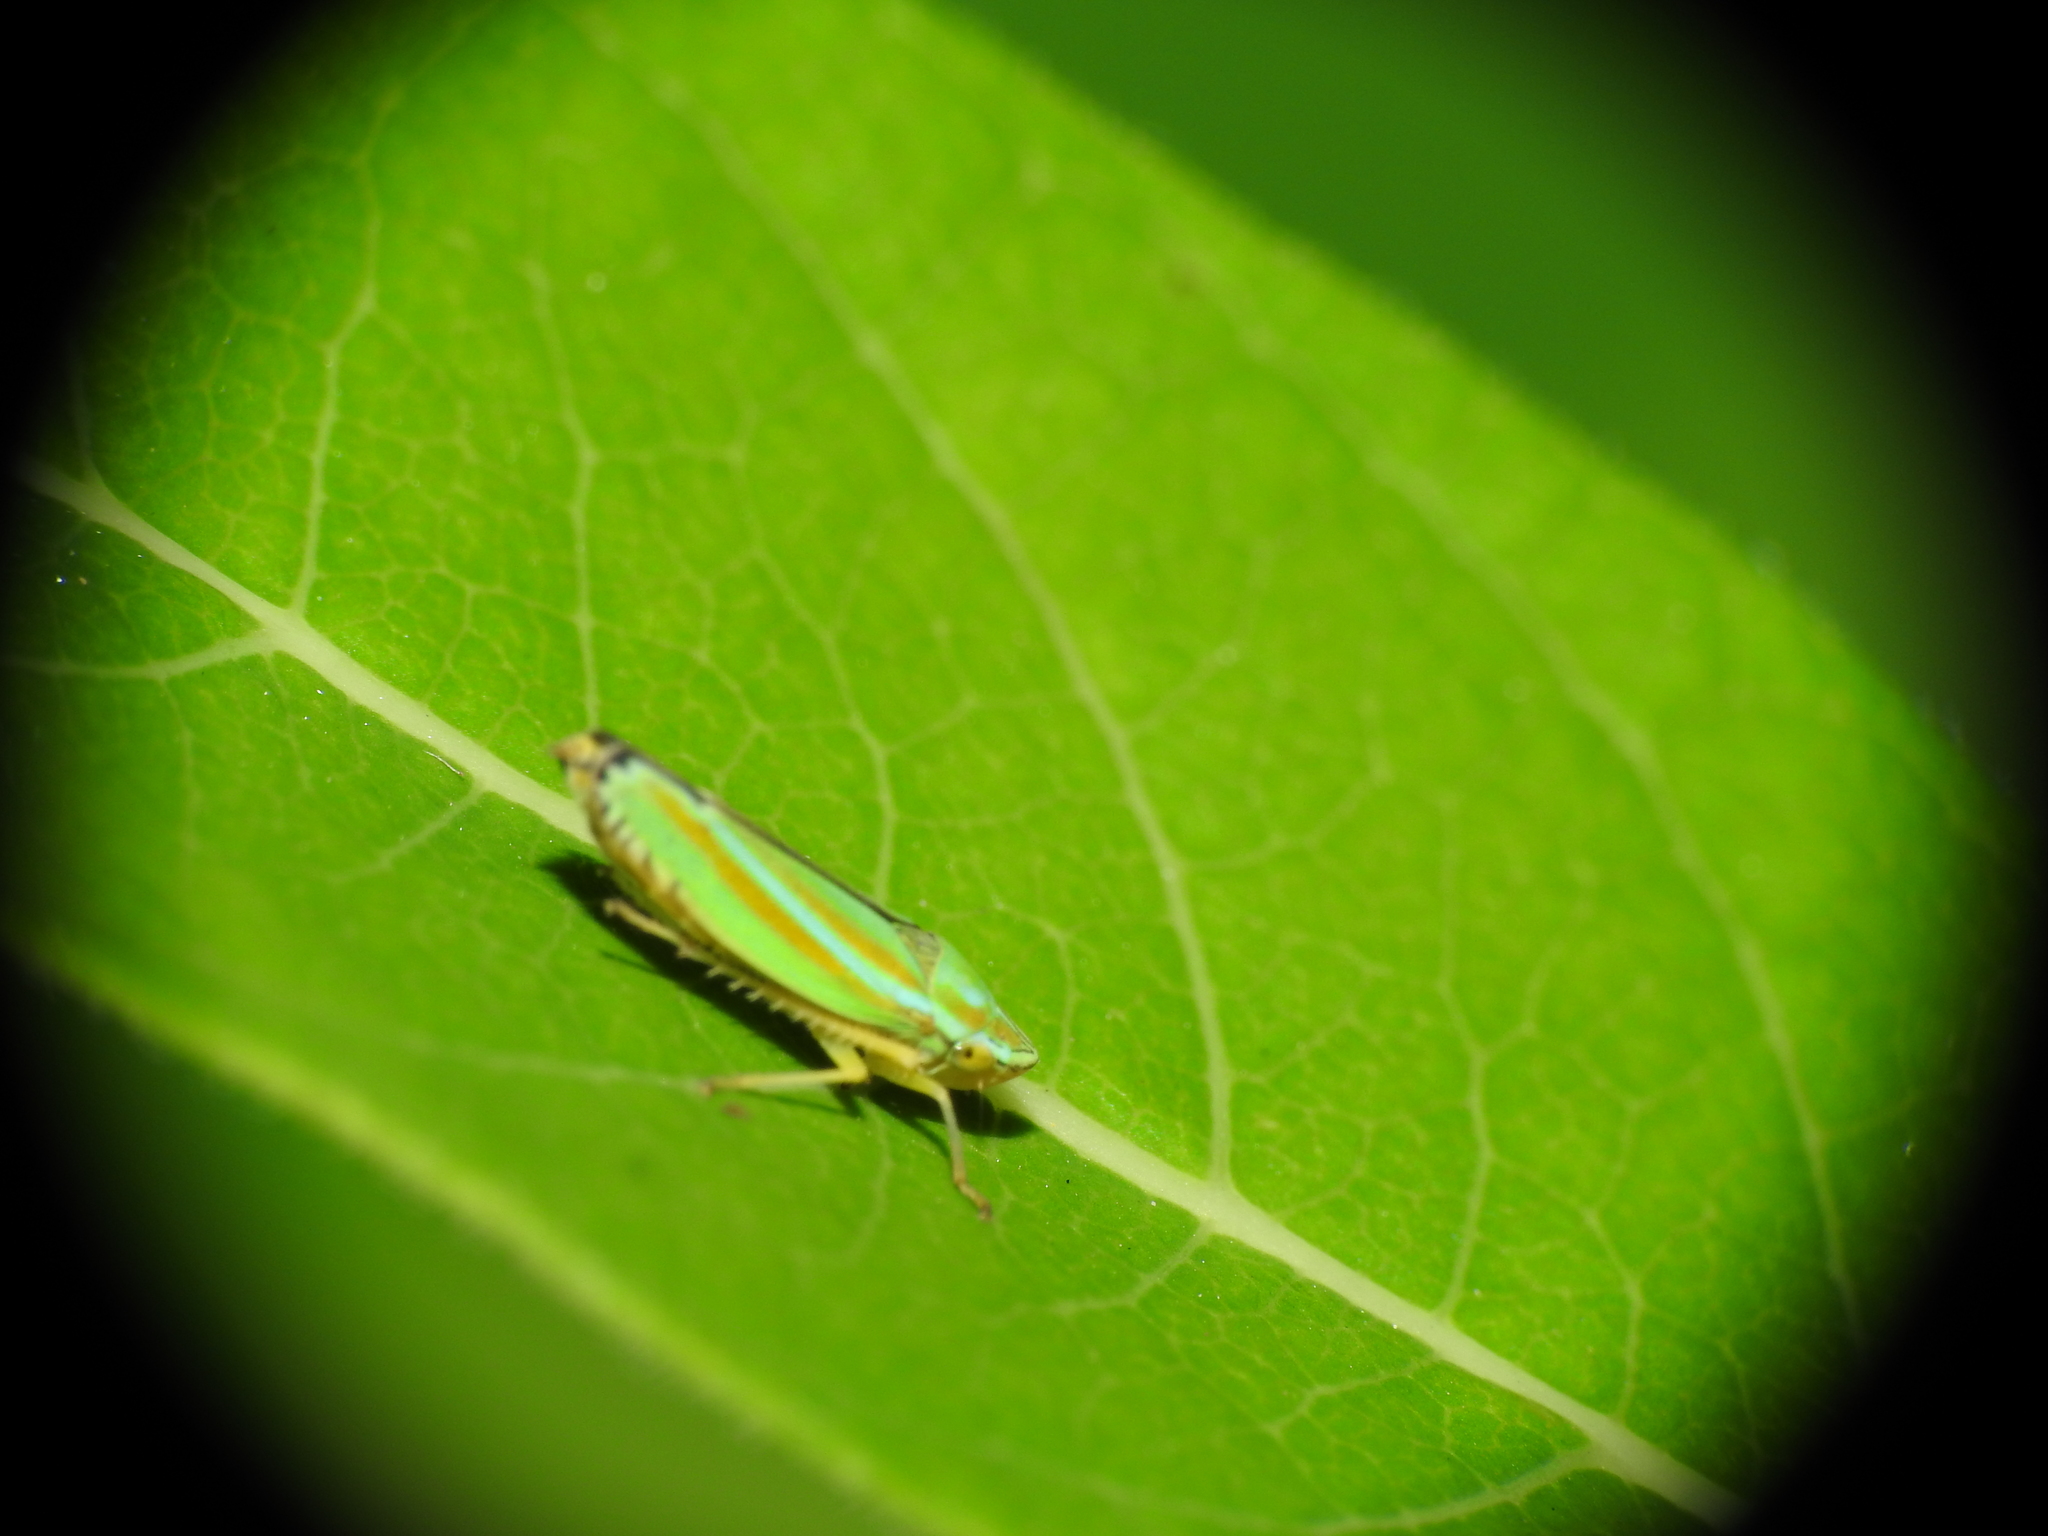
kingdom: Animalia
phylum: Arthropoda
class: Insecta
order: Hemiptera
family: Cicadellidae
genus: Graphocephala
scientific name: Graphocephala versuta
